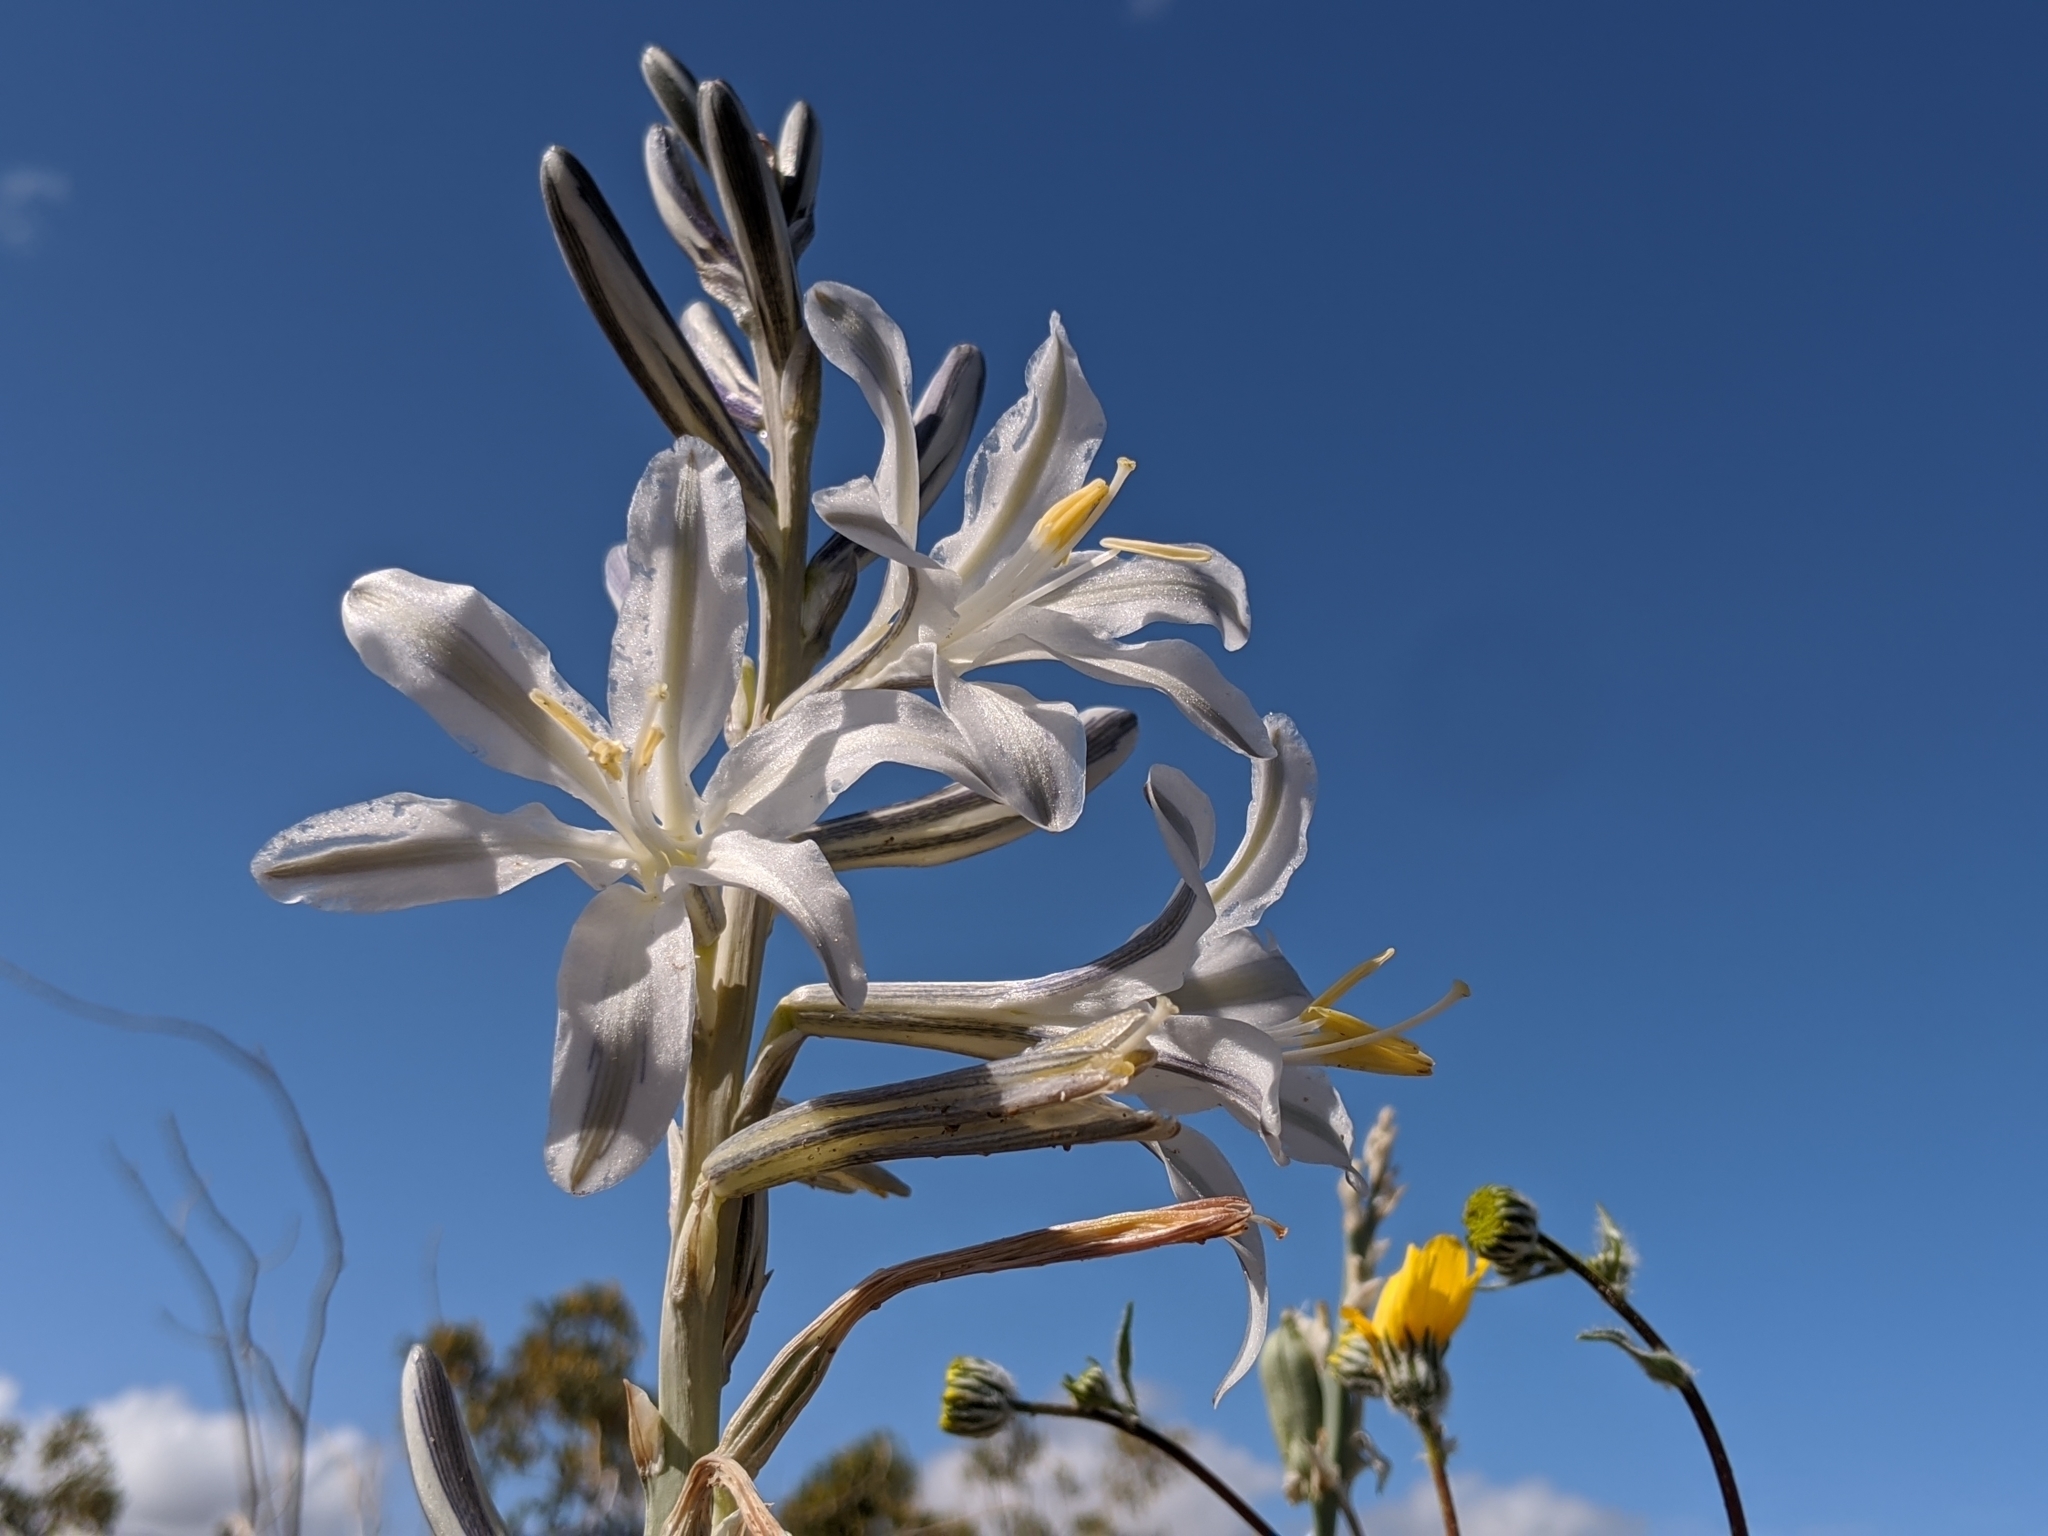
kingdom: Plantae
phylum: Tracheophyta
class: Liliopsida
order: Asparagales
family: Asparagaceae
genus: Hesperocallis
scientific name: Hesperocallis undulata
